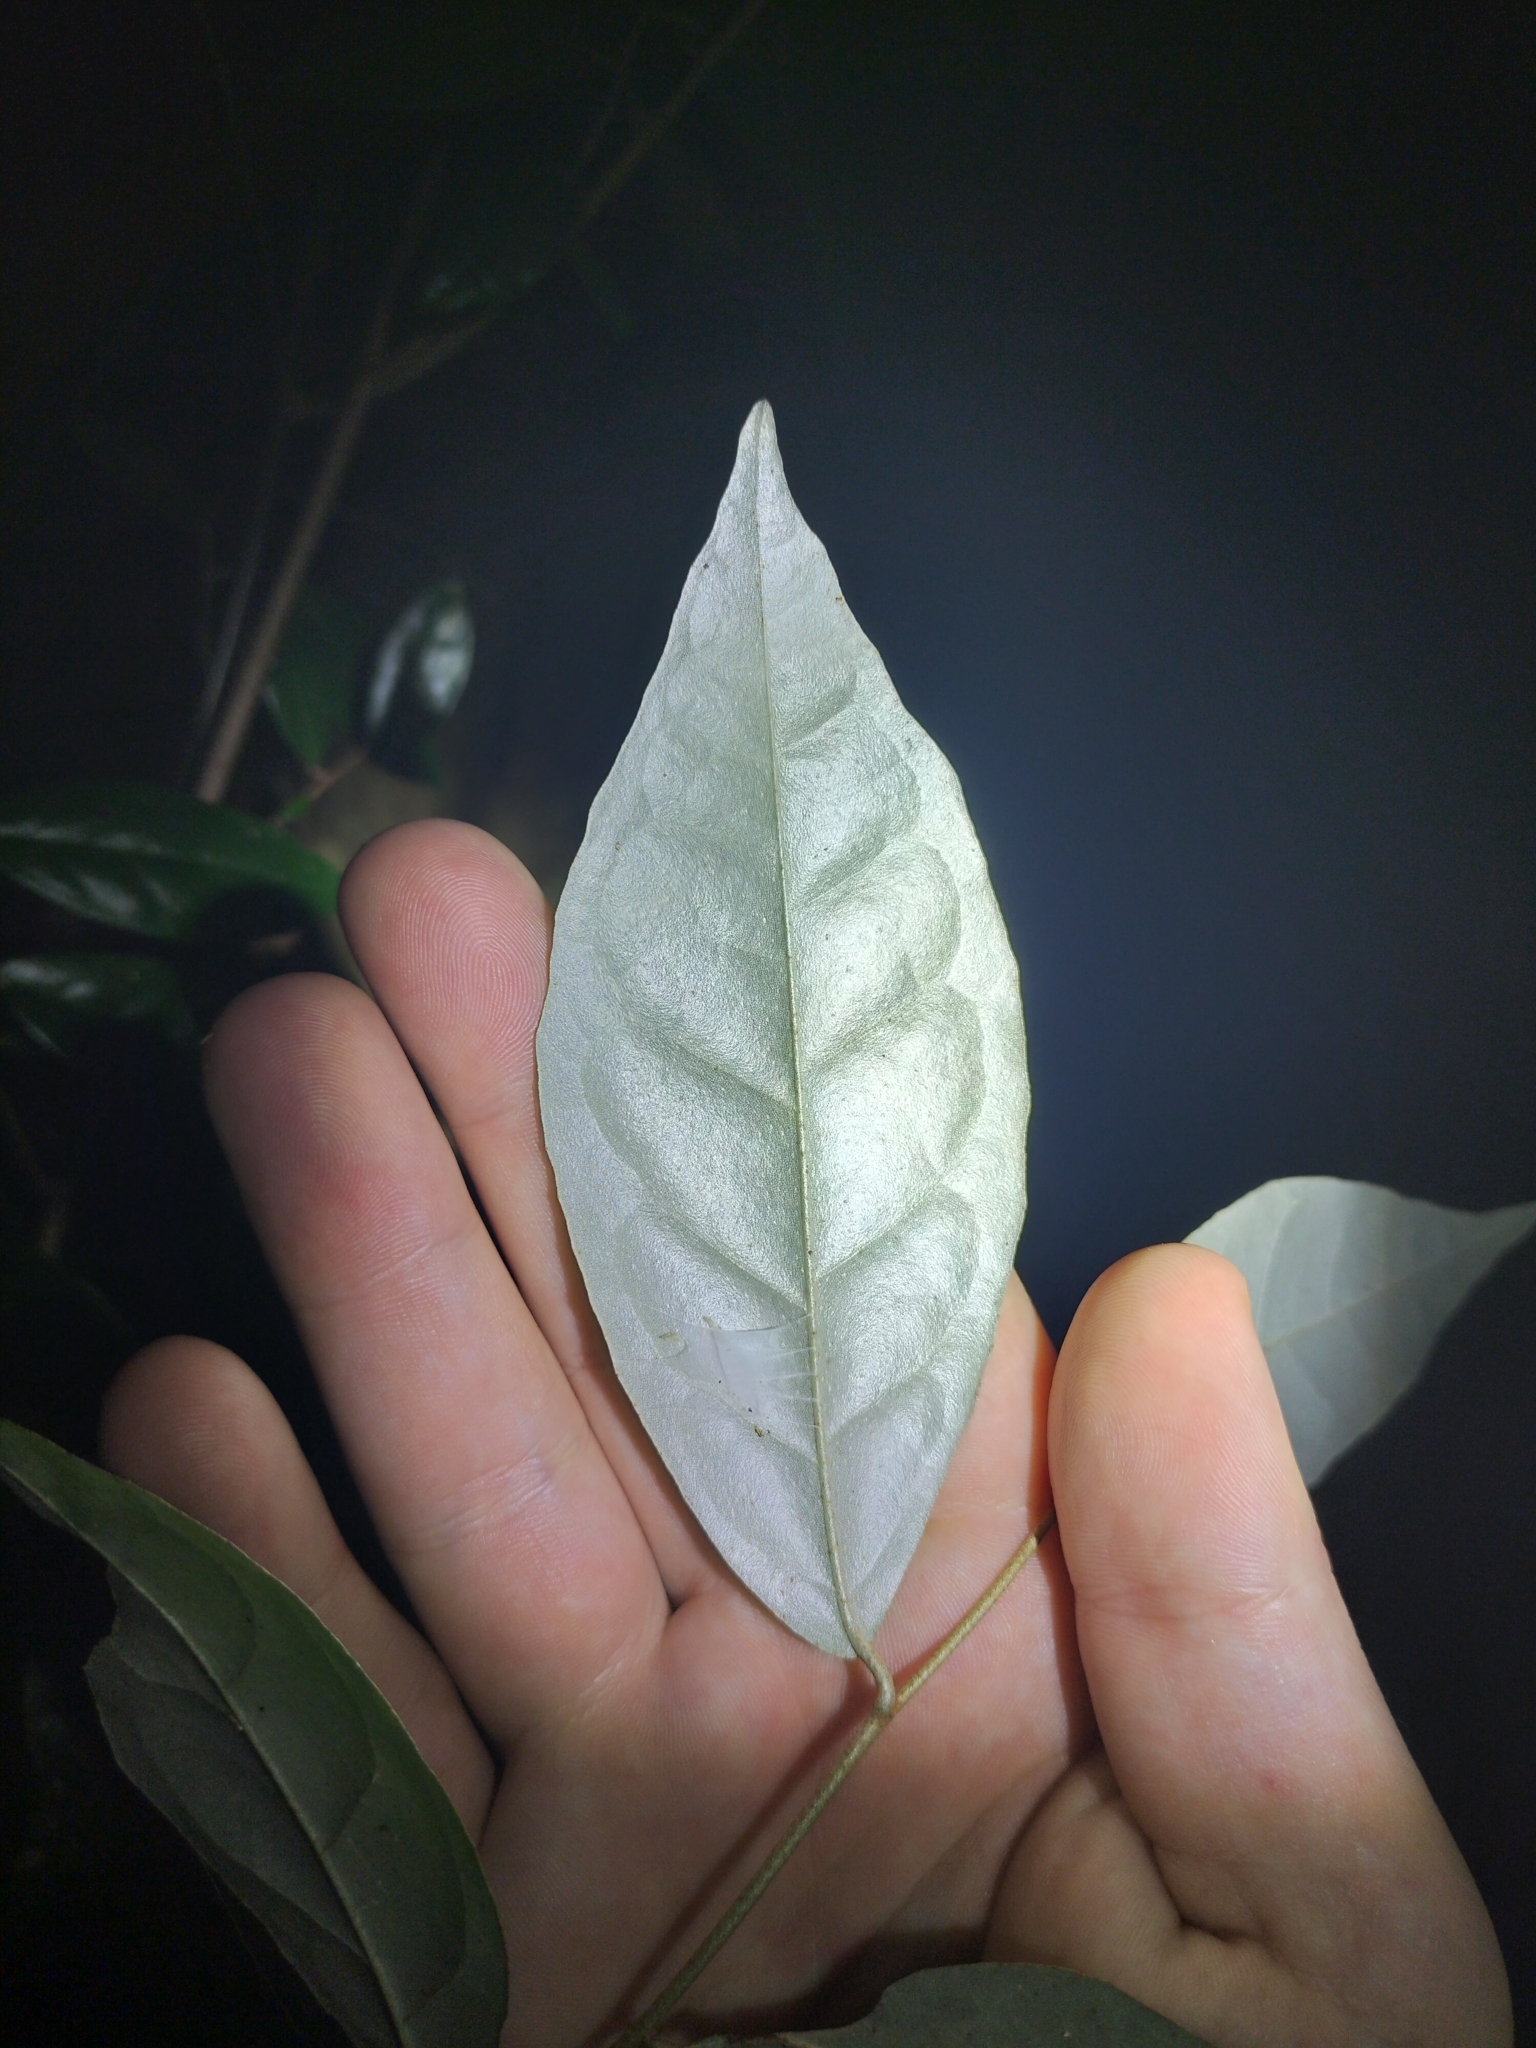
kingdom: Plantae
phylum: Tracheophyta
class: Magnoliopsida
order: Rosales
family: Elaeagnaceae
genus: Elaeagnus
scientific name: Elaeagnus triflora
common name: Millaa millaa-vine
